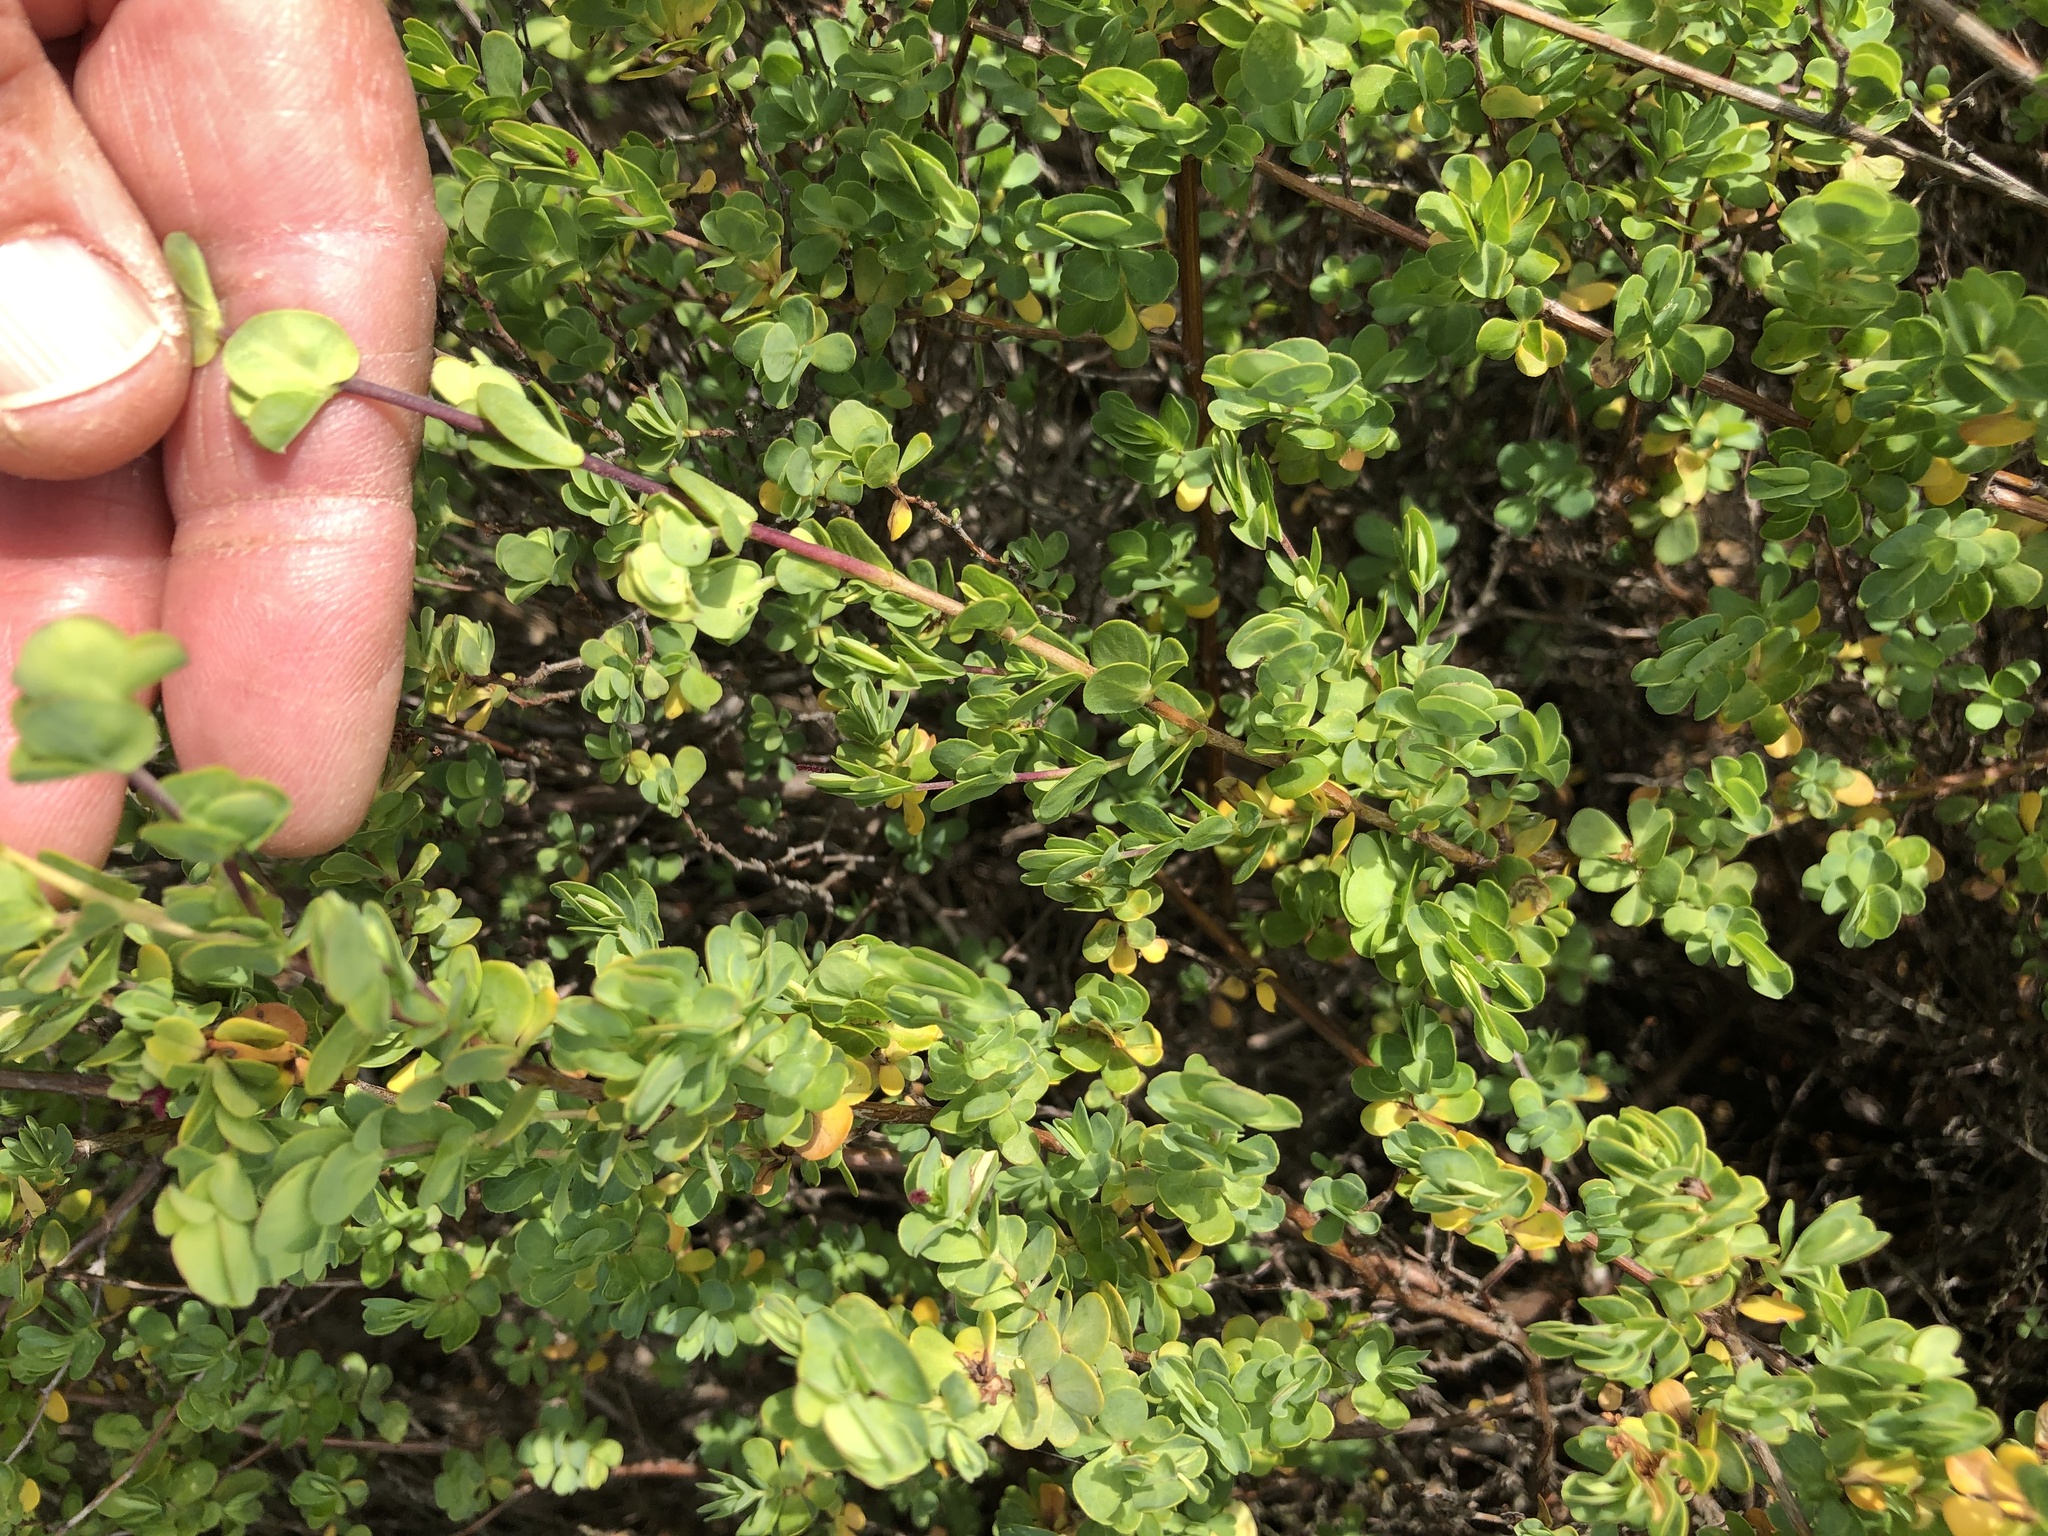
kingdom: Plantae
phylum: Tracheophyta
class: Magnoliopsida
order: Rosales
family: Rosaceae
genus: Cliffortia
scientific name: Cliffortia obcordata
